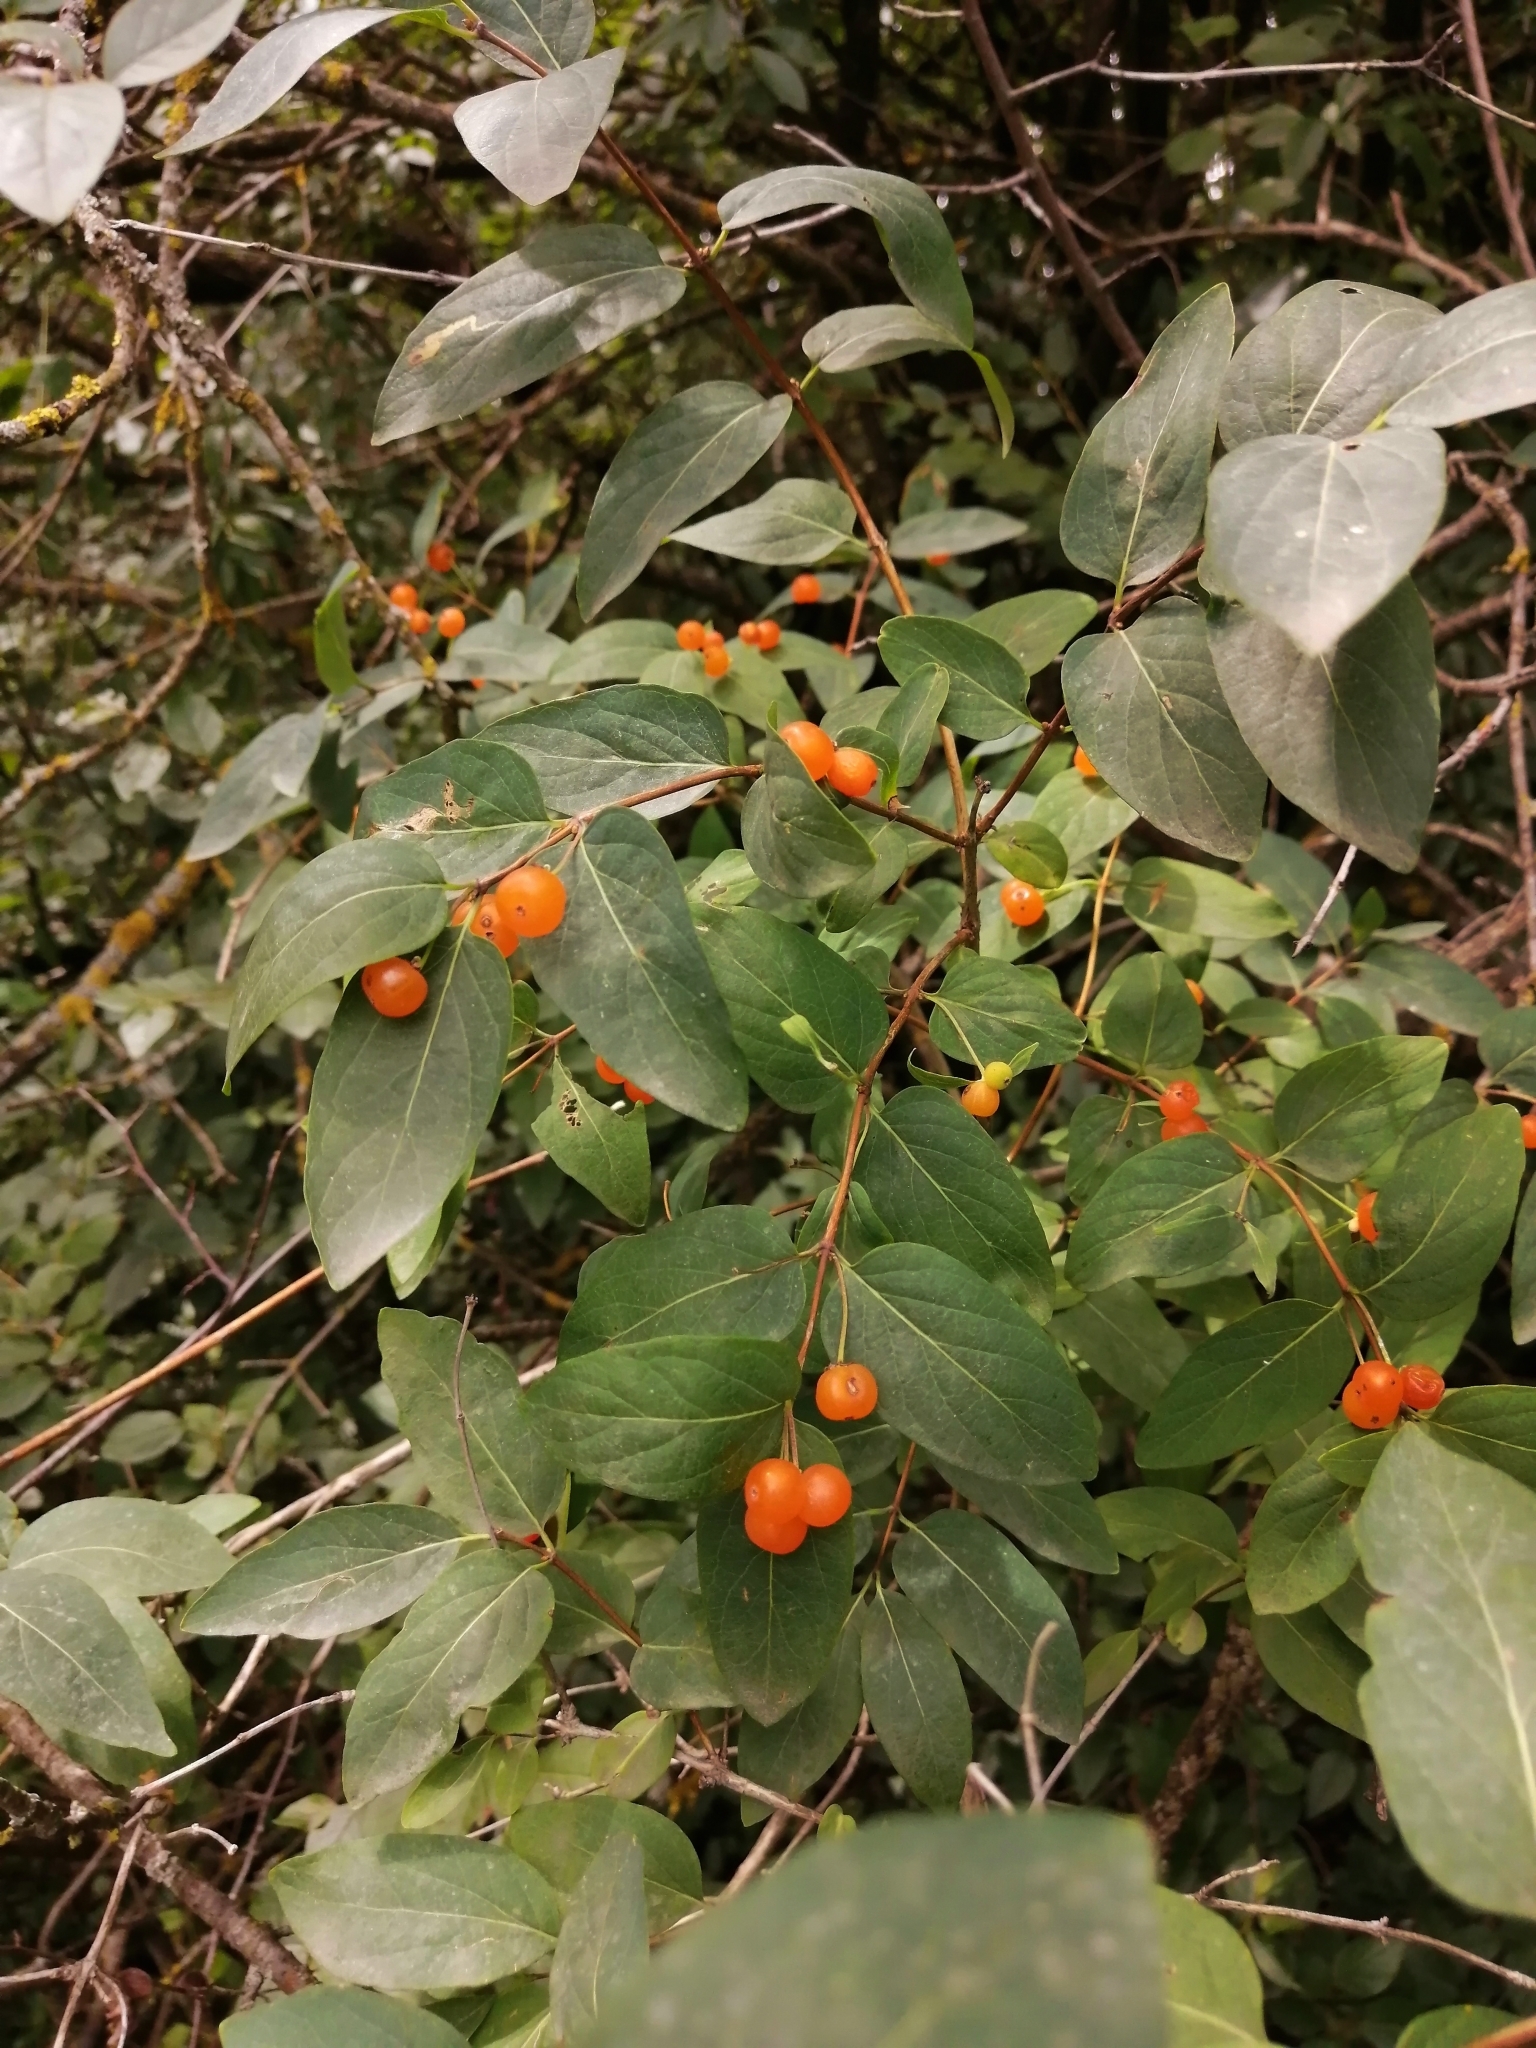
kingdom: Plantae
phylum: Tracheophyta
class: Magnoliopsida
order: Dipsacales
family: Caprifoliaceae
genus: Lonicera
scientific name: Lonicera tatarica
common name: Tatarian honeysuckle
